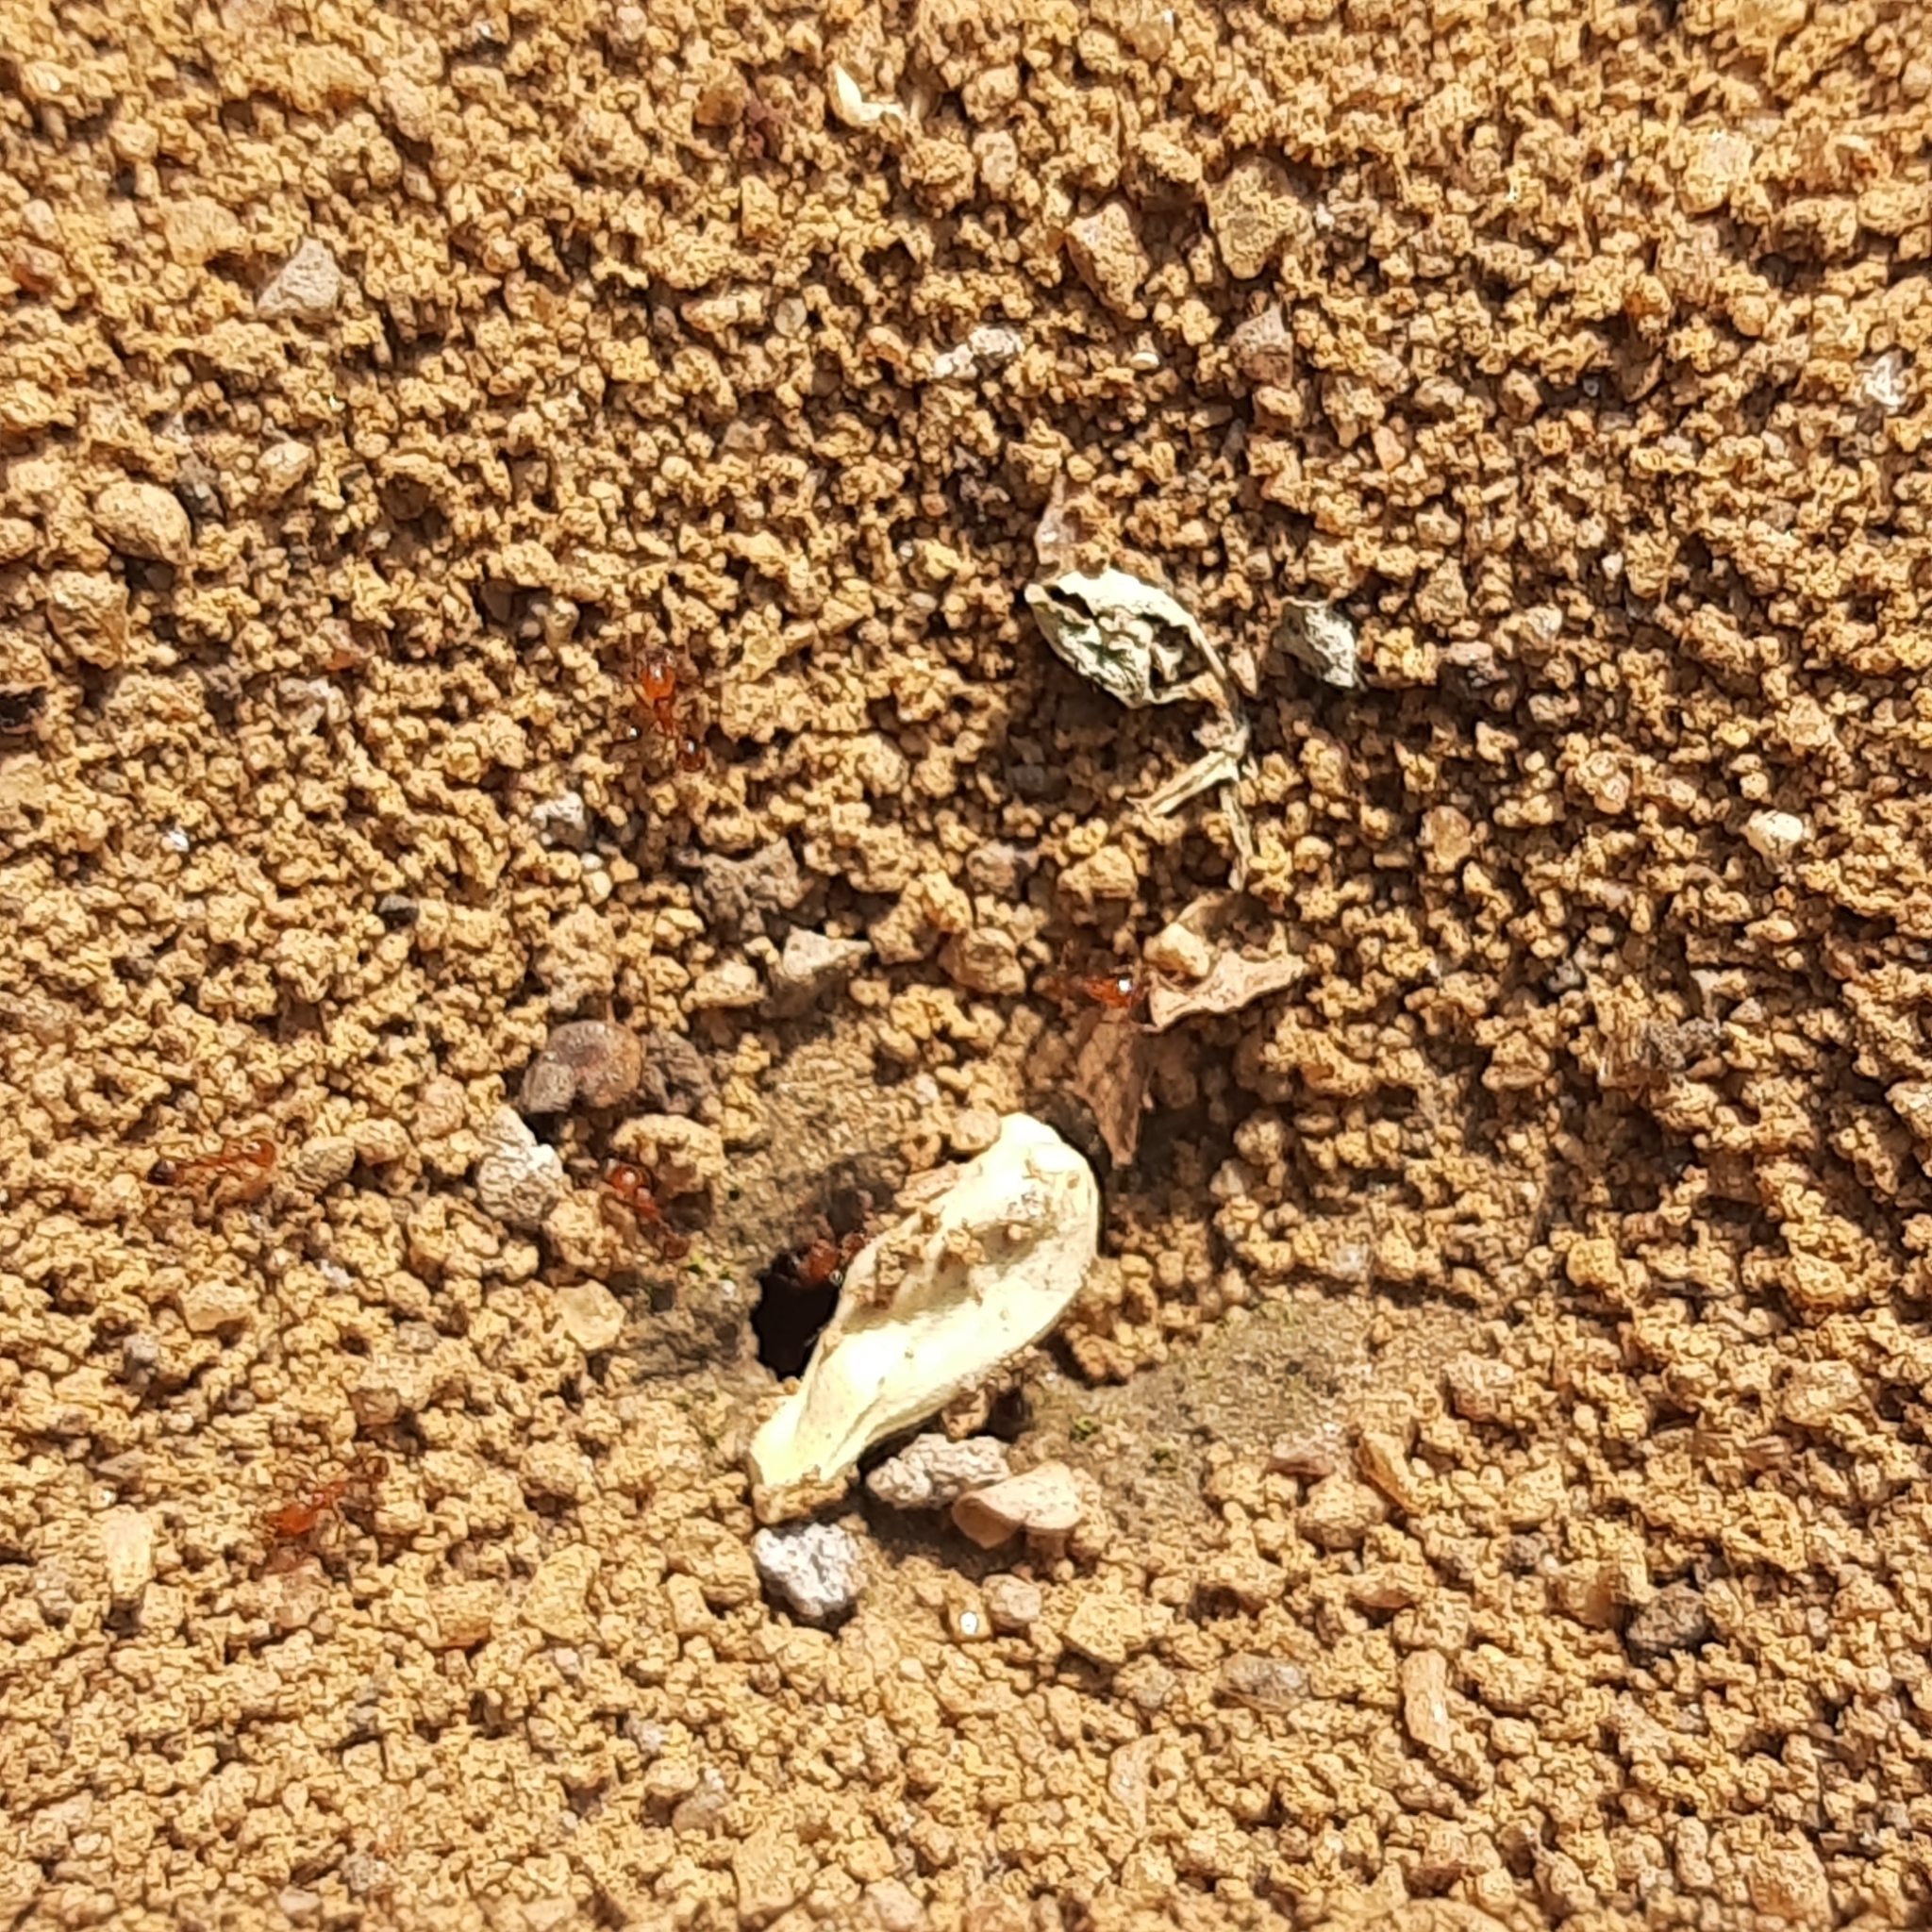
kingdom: Animalia
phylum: Arthropoda
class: Insecta
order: Hymenoptera
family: Formicidae
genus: Solenopsis
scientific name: Solenopsis geminata
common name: Tropical fire ant
